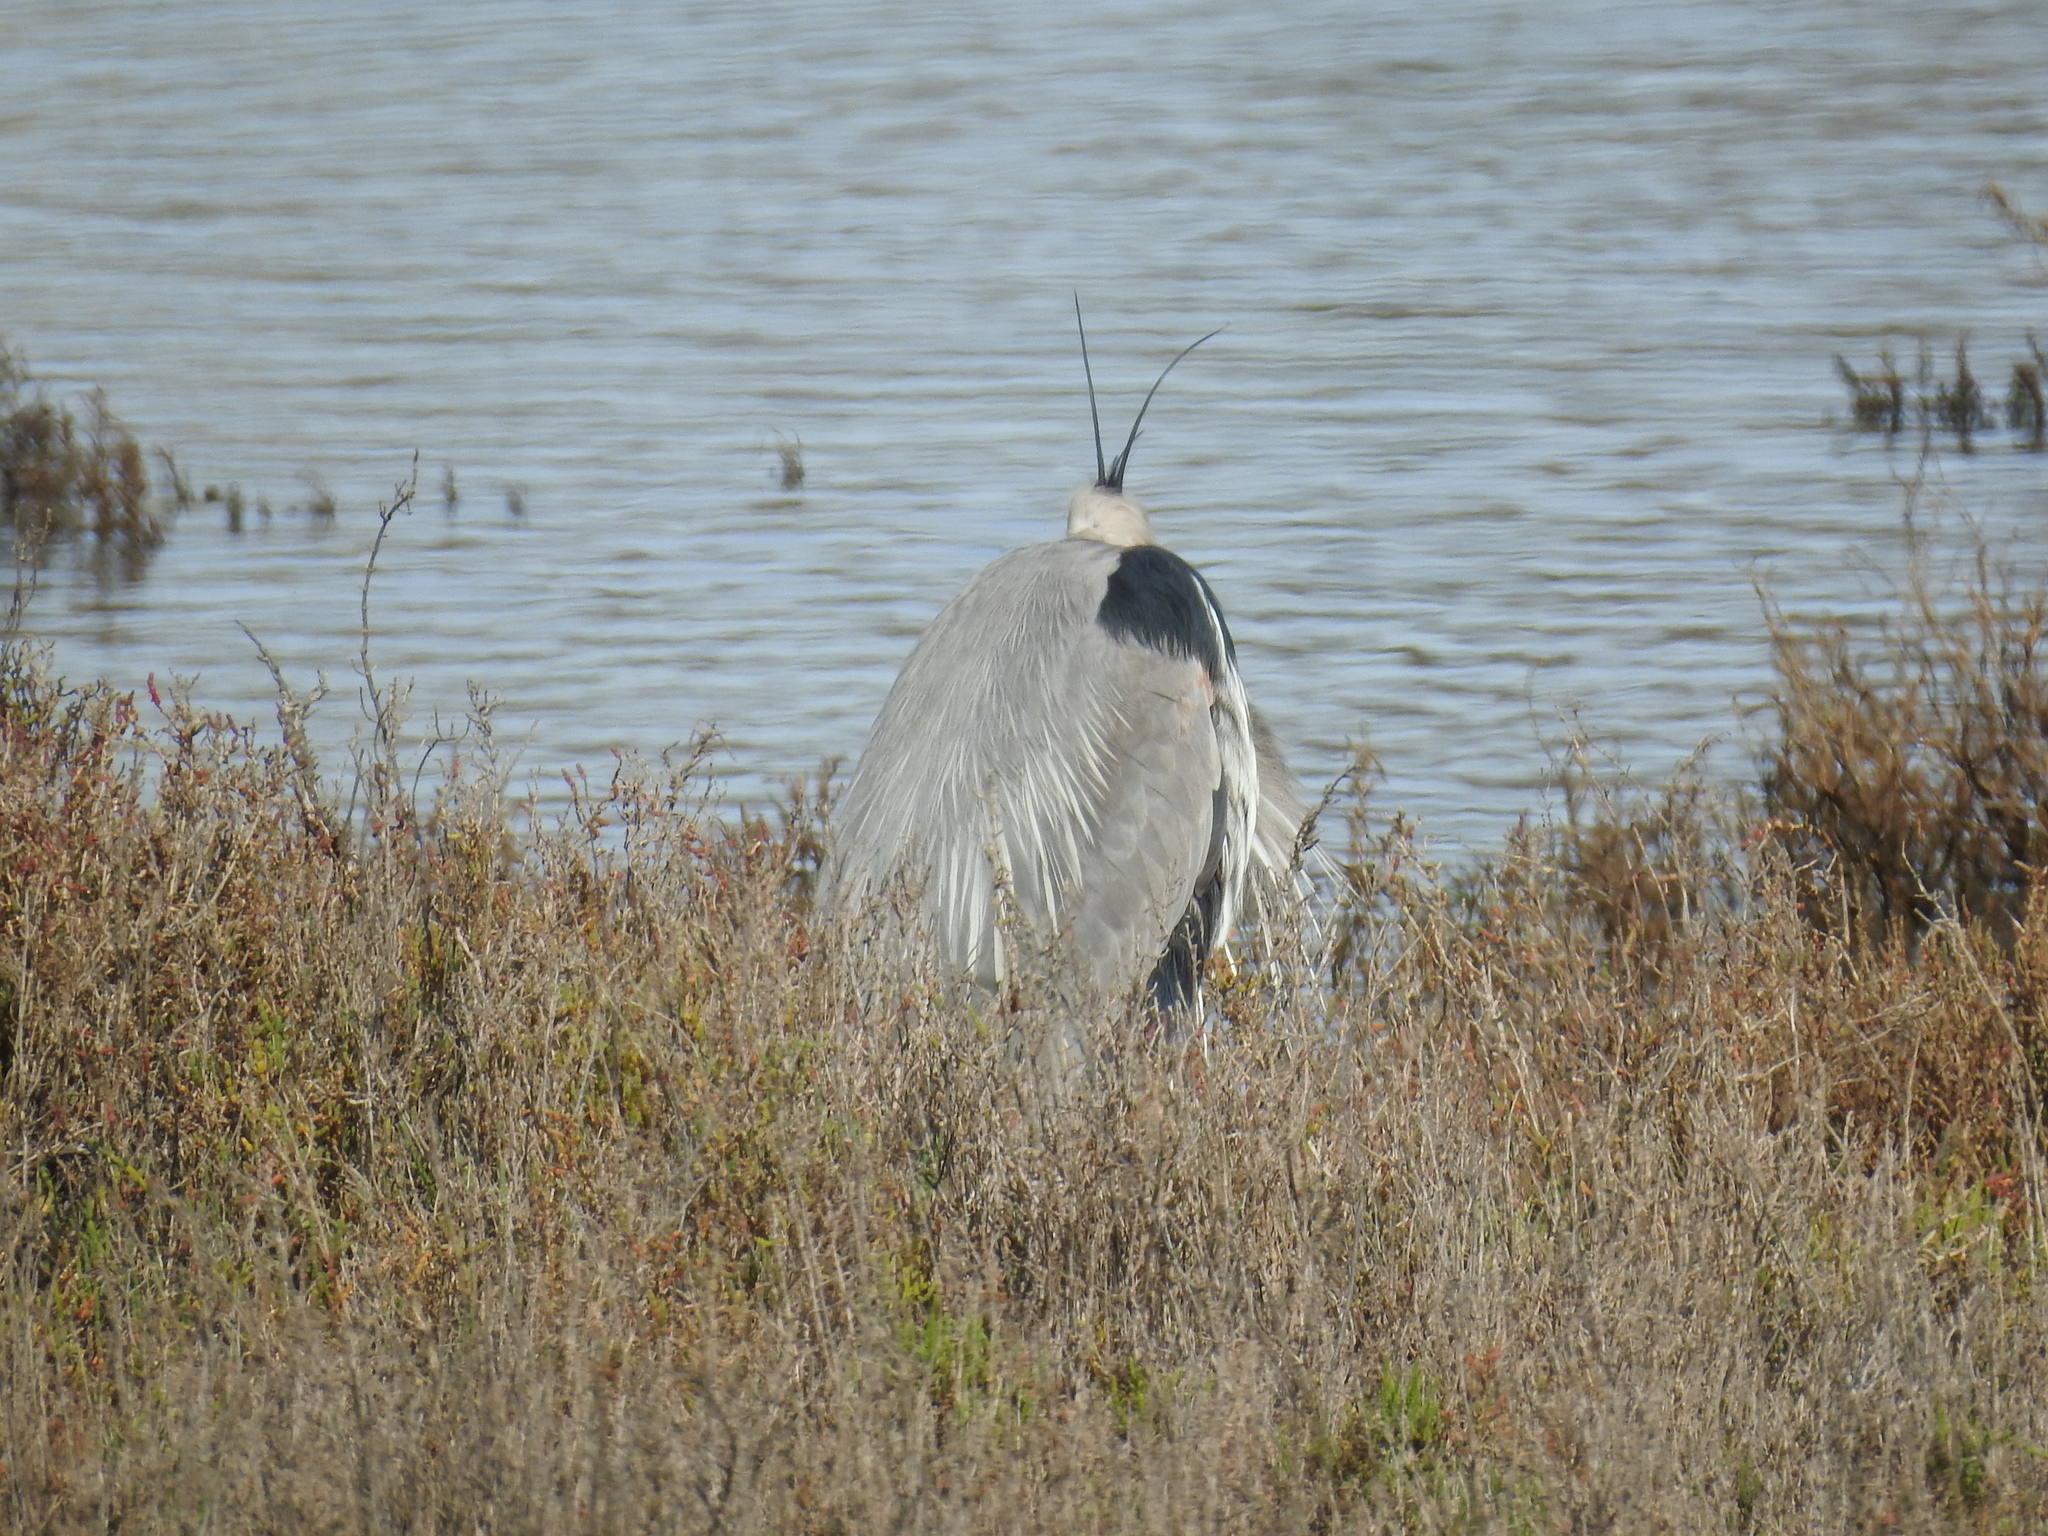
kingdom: Animalia
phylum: Chordata
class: Aves
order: Pelecaniformes
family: Ardeidae
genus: Ardea
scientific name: Ardea herodias
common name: Great blue heron
